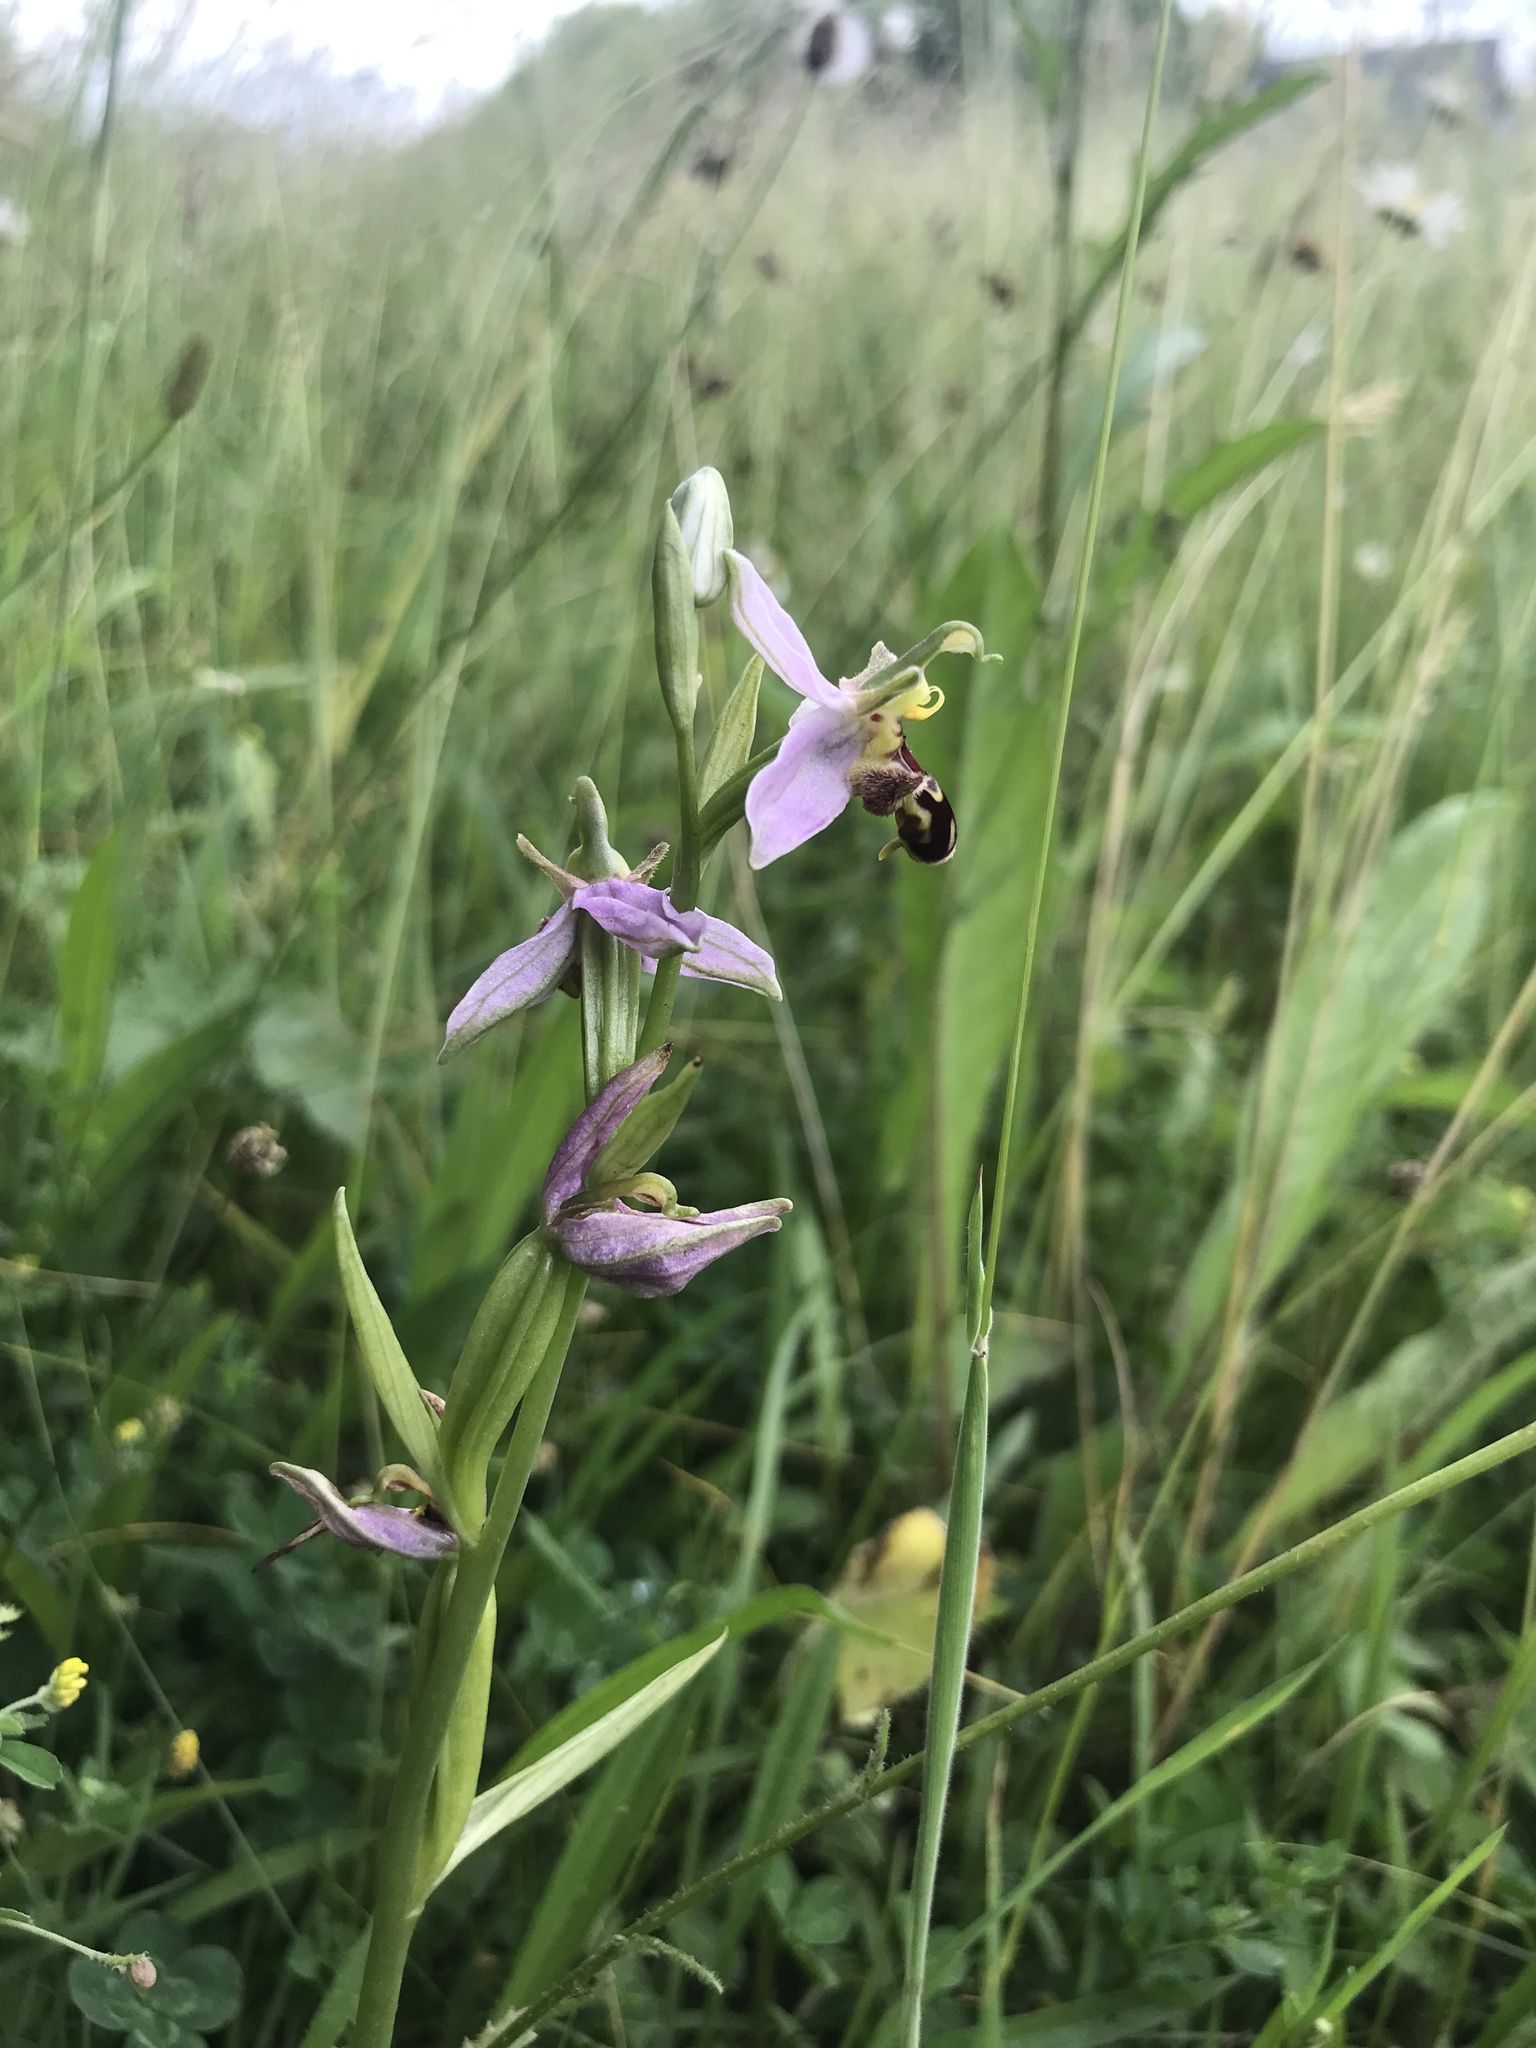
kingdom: Plantae
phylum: Tracheophyta
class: Liliopsida
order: Asparagales
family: Orchidaceae
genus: Ophrys
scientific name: Ophrys apifera
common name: Bee orchid
